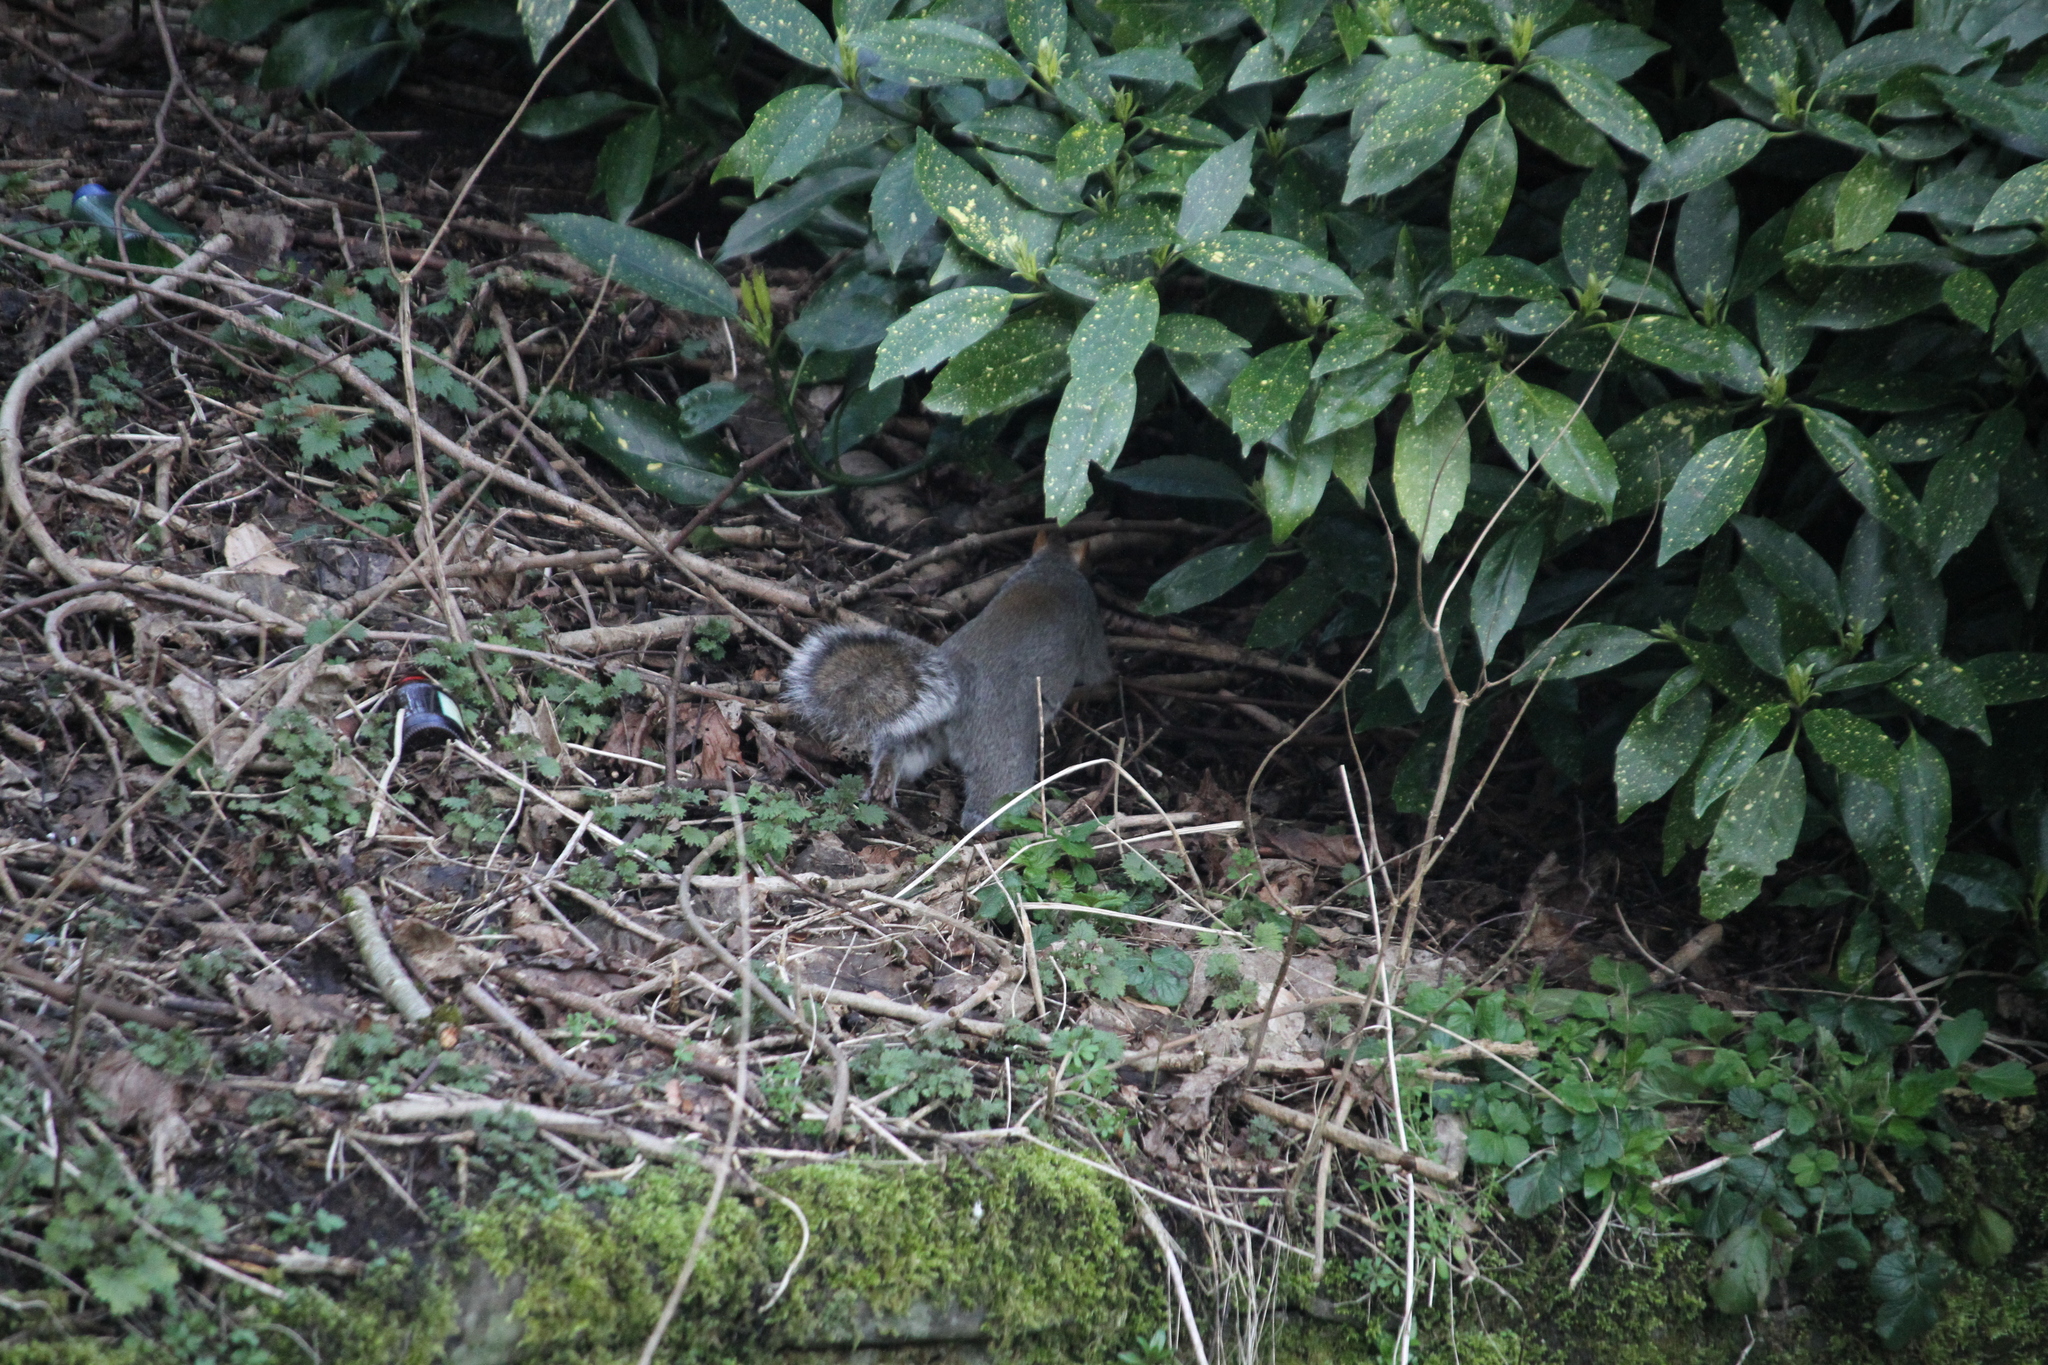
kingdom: Animalia
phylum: Chordata
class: Mammalia
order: Rodentia
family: Sciuridae
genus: Sciurus
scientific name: Sciurus carolinensis
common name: Eastern gray squirrel
